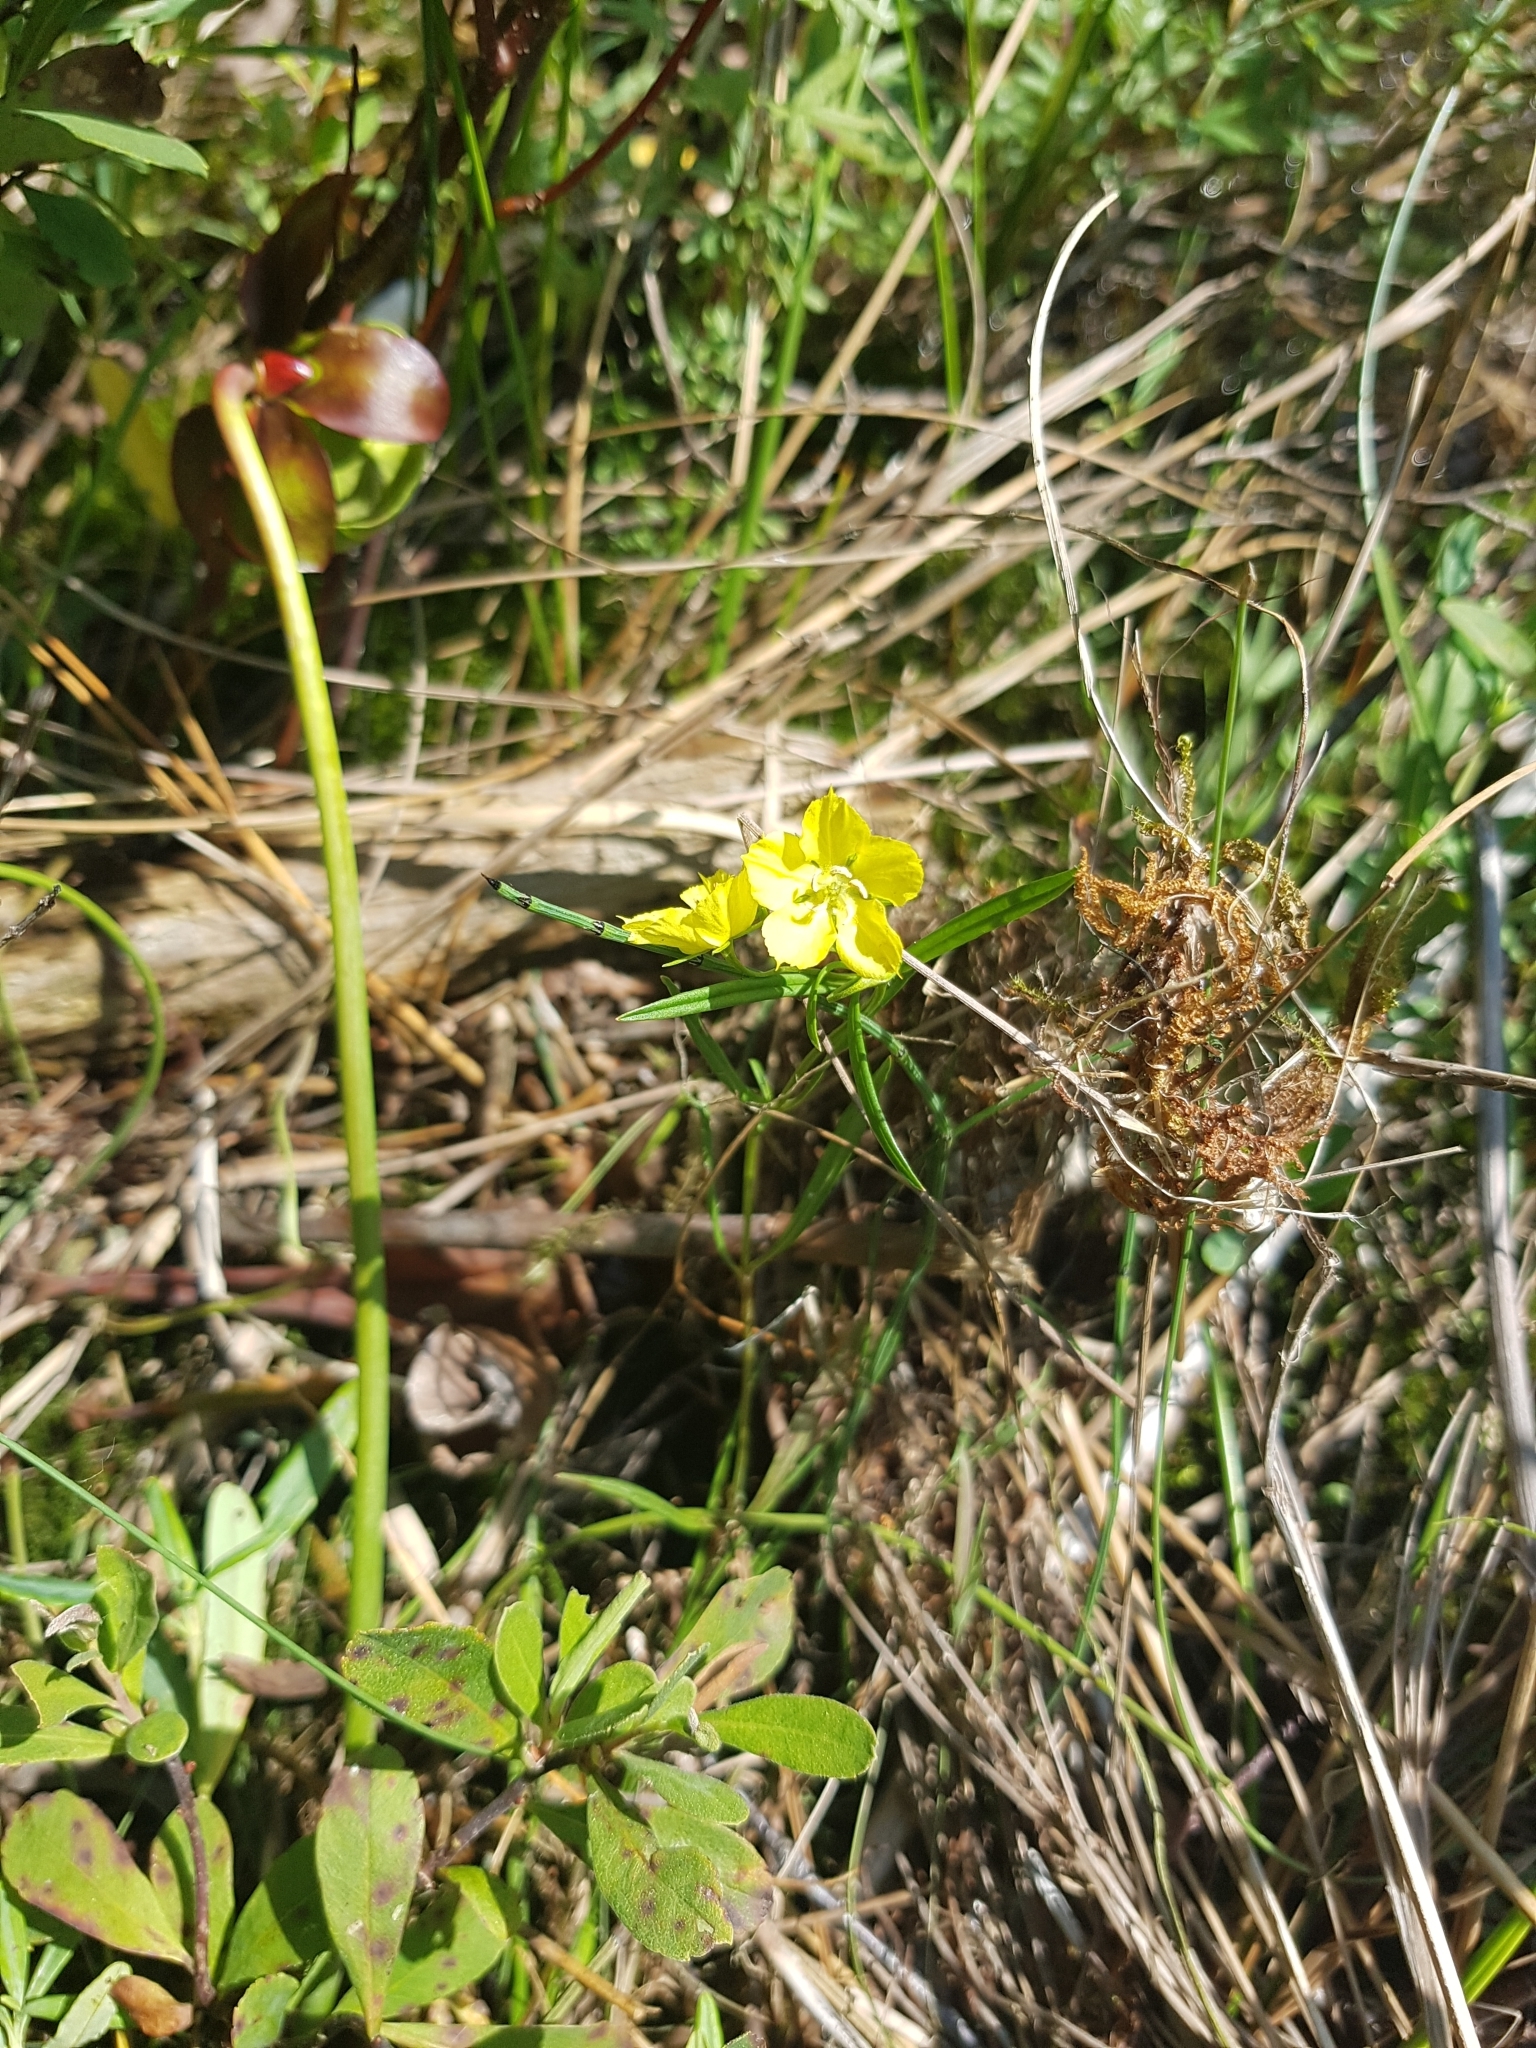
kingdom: Plantae
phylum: Tracheophyta
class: Magnoliopsida
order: Ericales
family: Primulaceae
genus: Lysimachia
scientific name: Lysimachia quadriflora
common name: Four-flowered loosestrife
